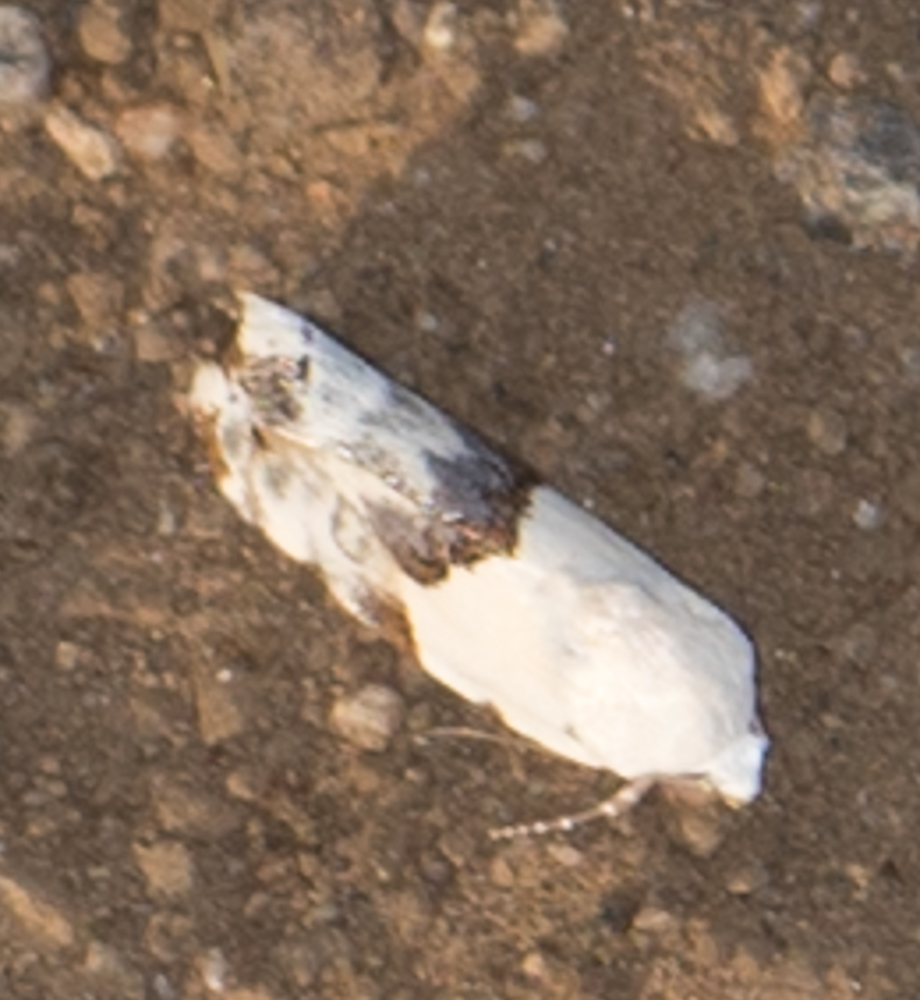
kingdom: Animalia
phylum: Arthropoda
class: Insecta
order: Lepidoptera
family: Noctuidae
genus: Acontia
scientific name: Acontia acutus
